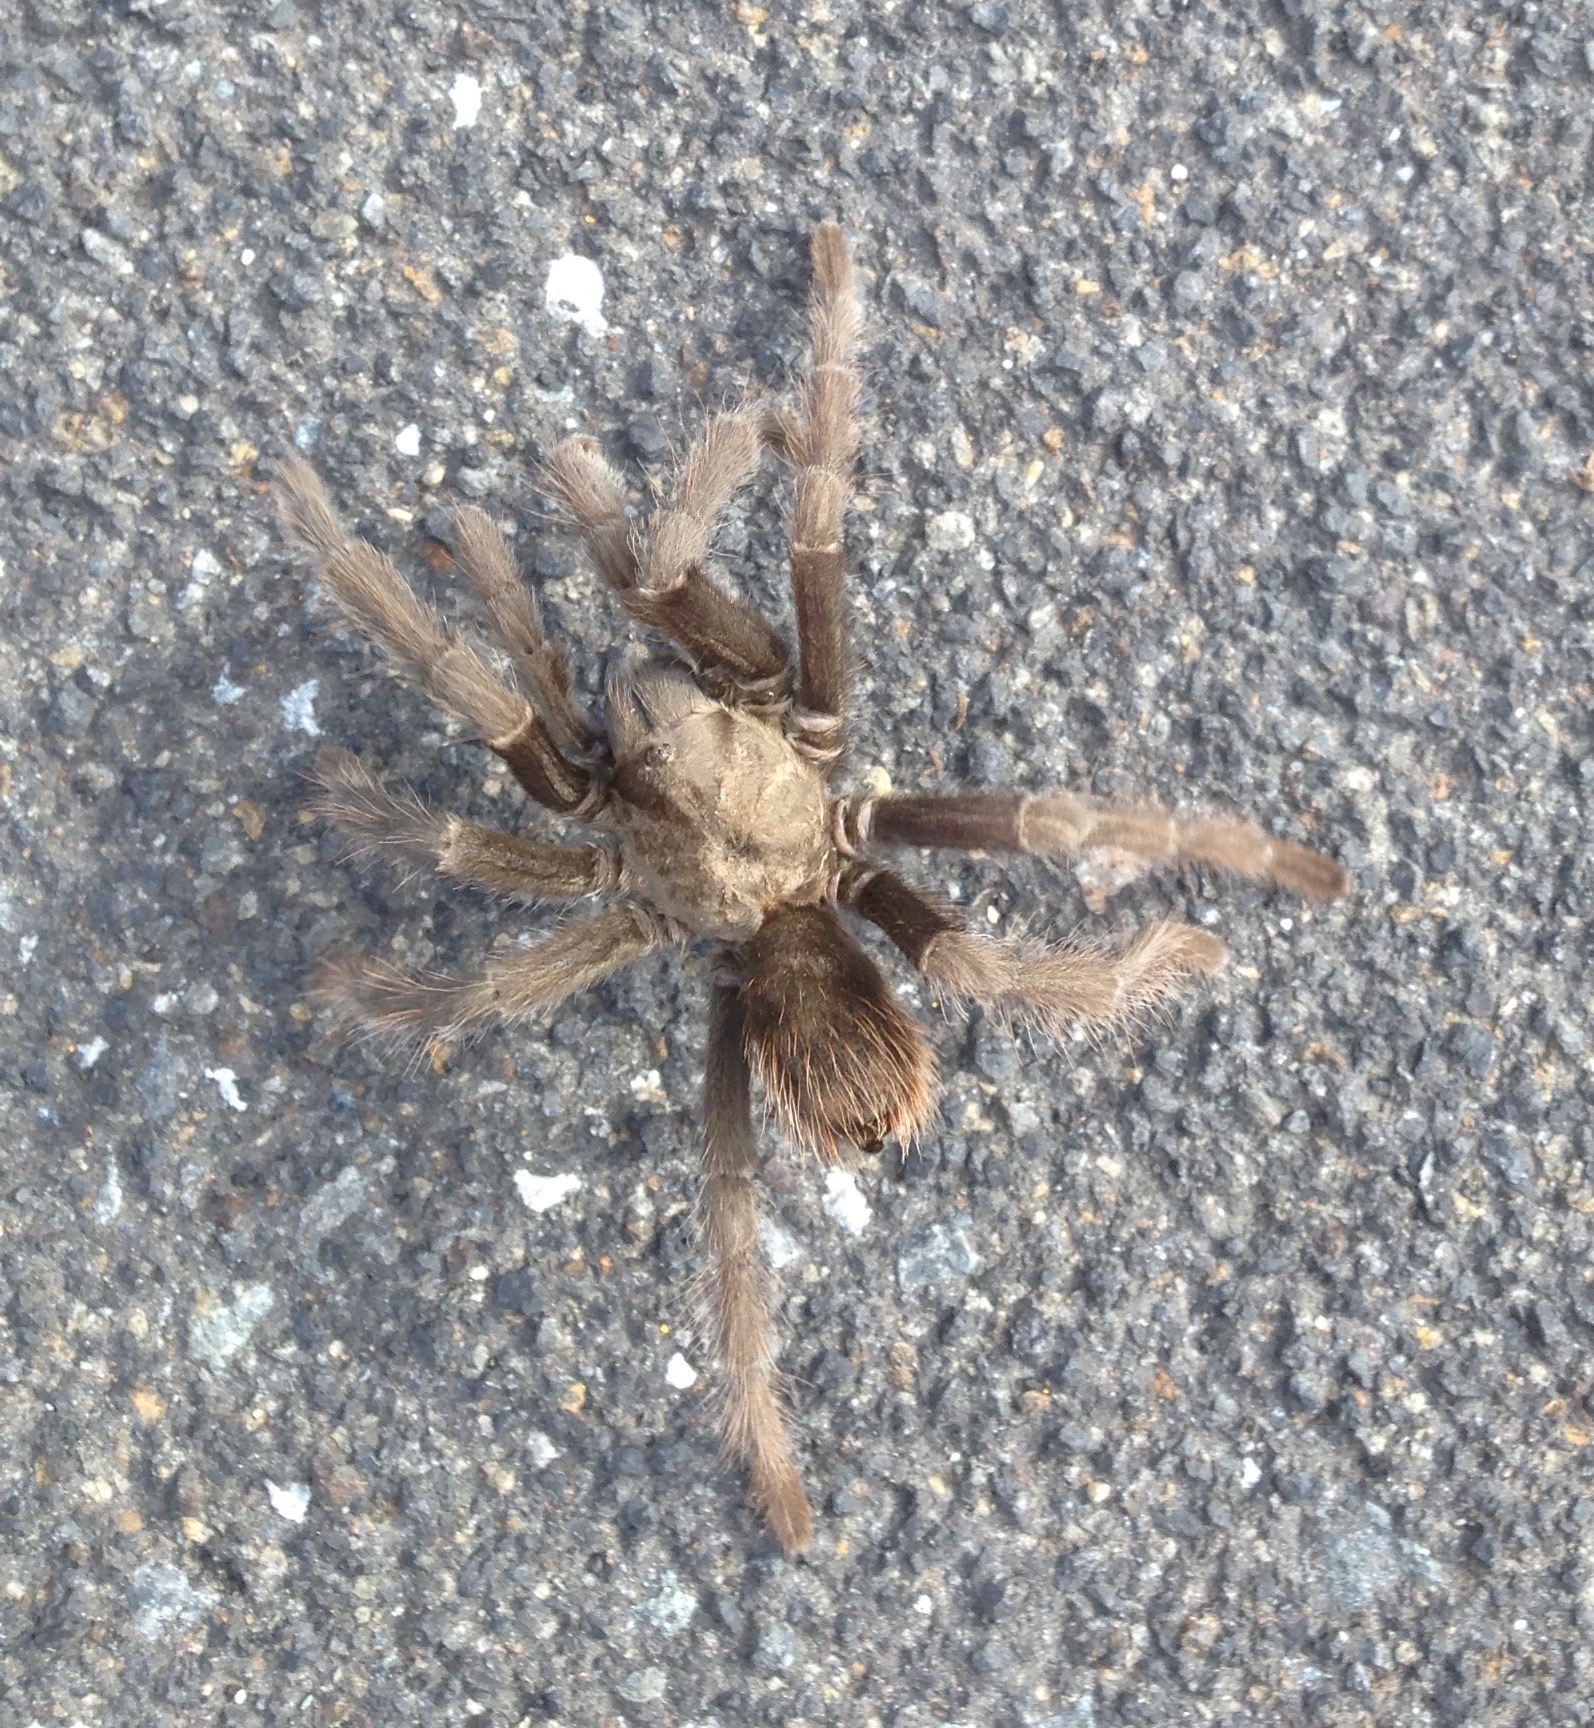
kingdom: Animalia
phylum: Arthropoda
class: Arachnida
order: Araneae
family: Theraphosidae
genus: Aphonopelma
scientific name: Aphonopelma johnnycashi
